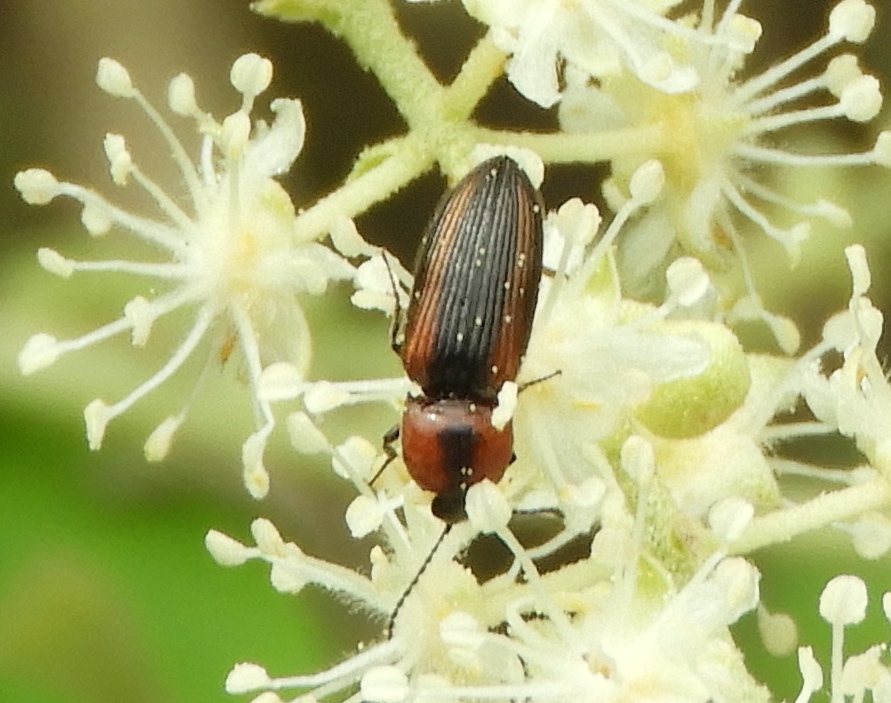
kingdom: Animalia
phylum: Arthropoda
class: Insecta
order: Coleoptera
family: Elateridae
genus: Cardiophorus
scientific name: Cardiophorus aptopoides
